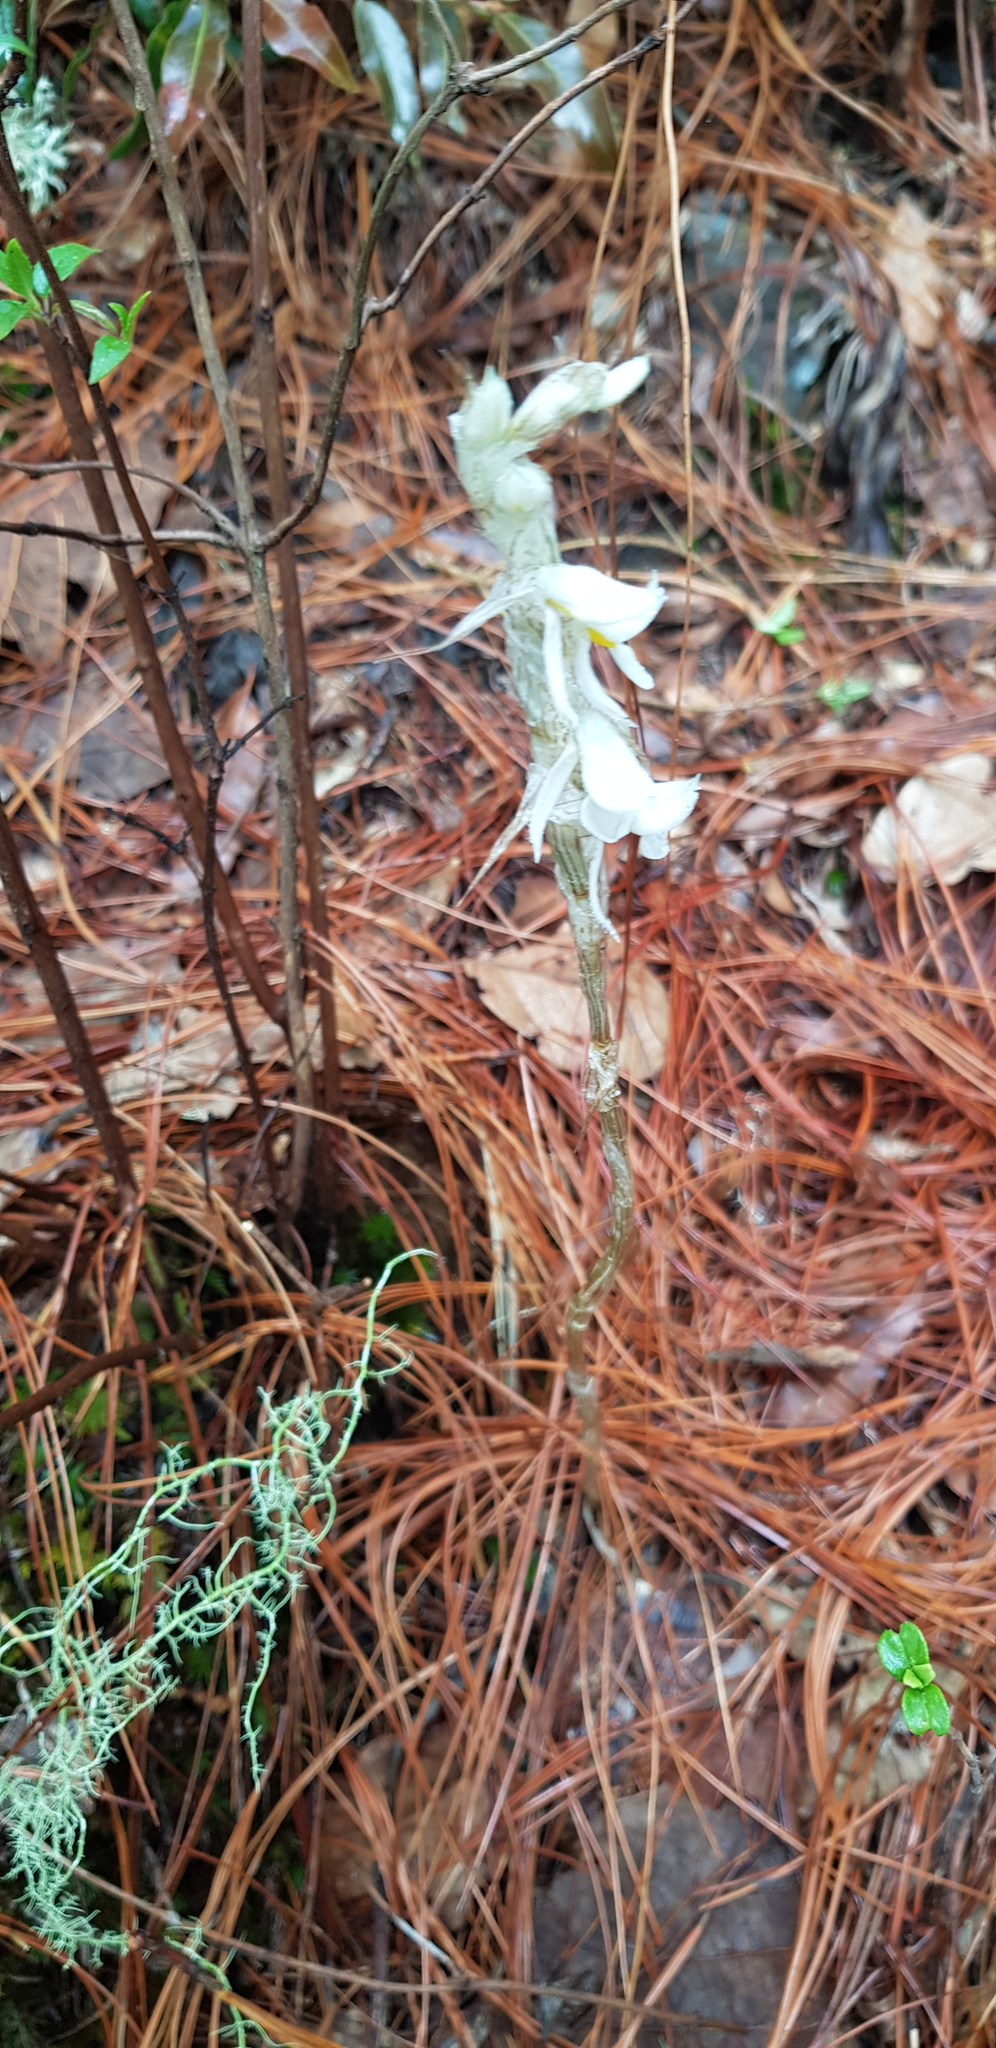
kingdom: Plantae
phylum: Tracheophyta
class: Liliopsida
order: Asparagales
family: Orchidaceae
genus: Deiregyne
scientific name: Deiregyne eriophora
